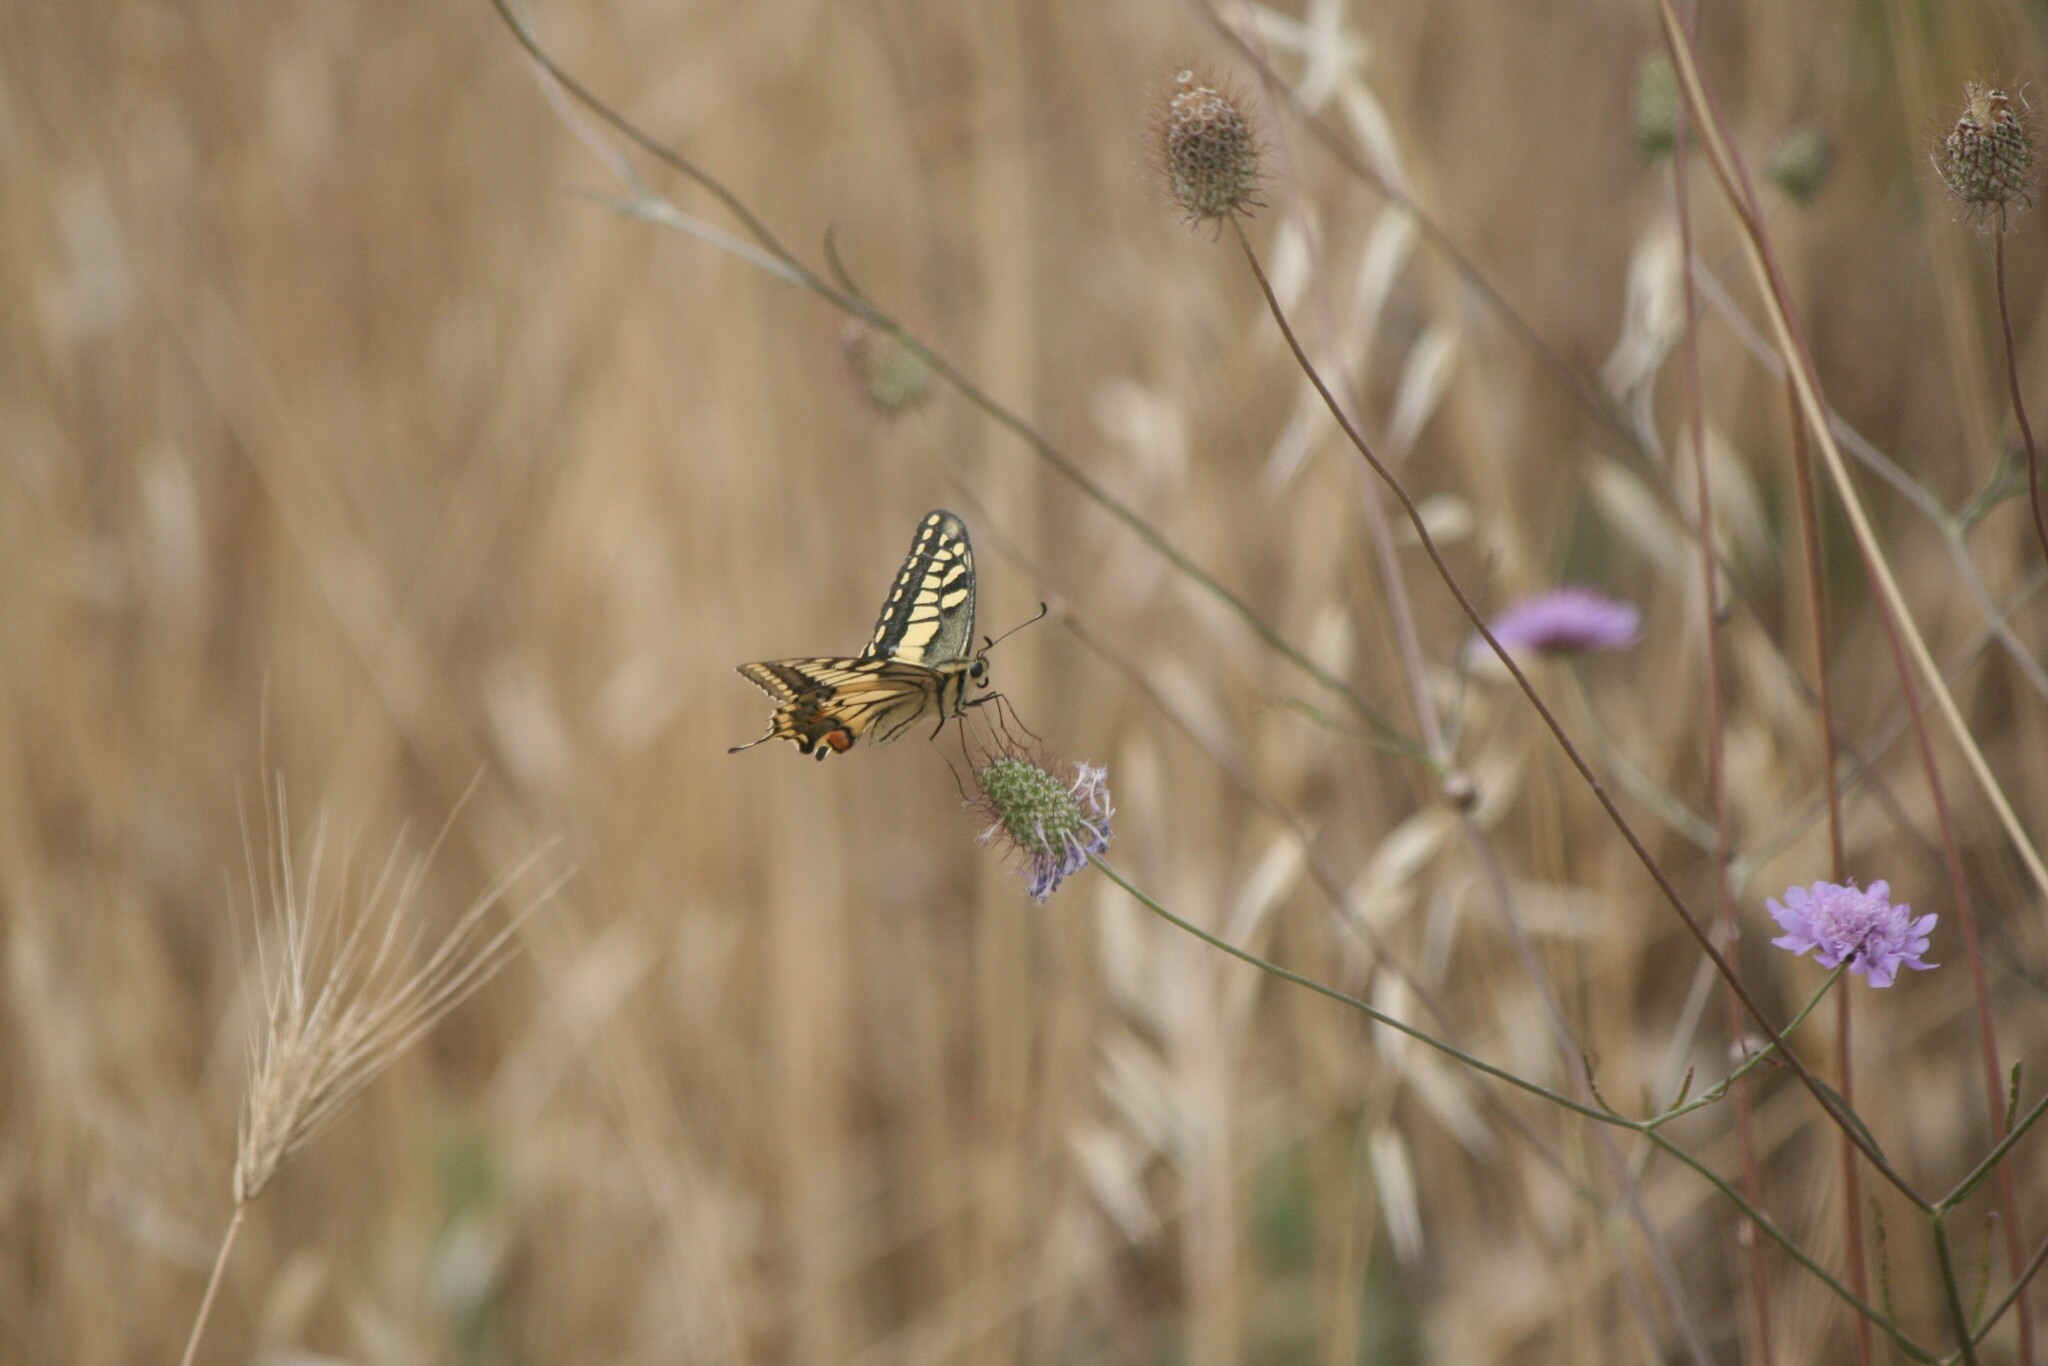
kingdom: Animalia
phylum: Arthropoda
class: Insecta
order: Lepidoptera
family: Papilionidae
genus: Papilio
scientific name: Papilio machaon
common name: Swallowtail
